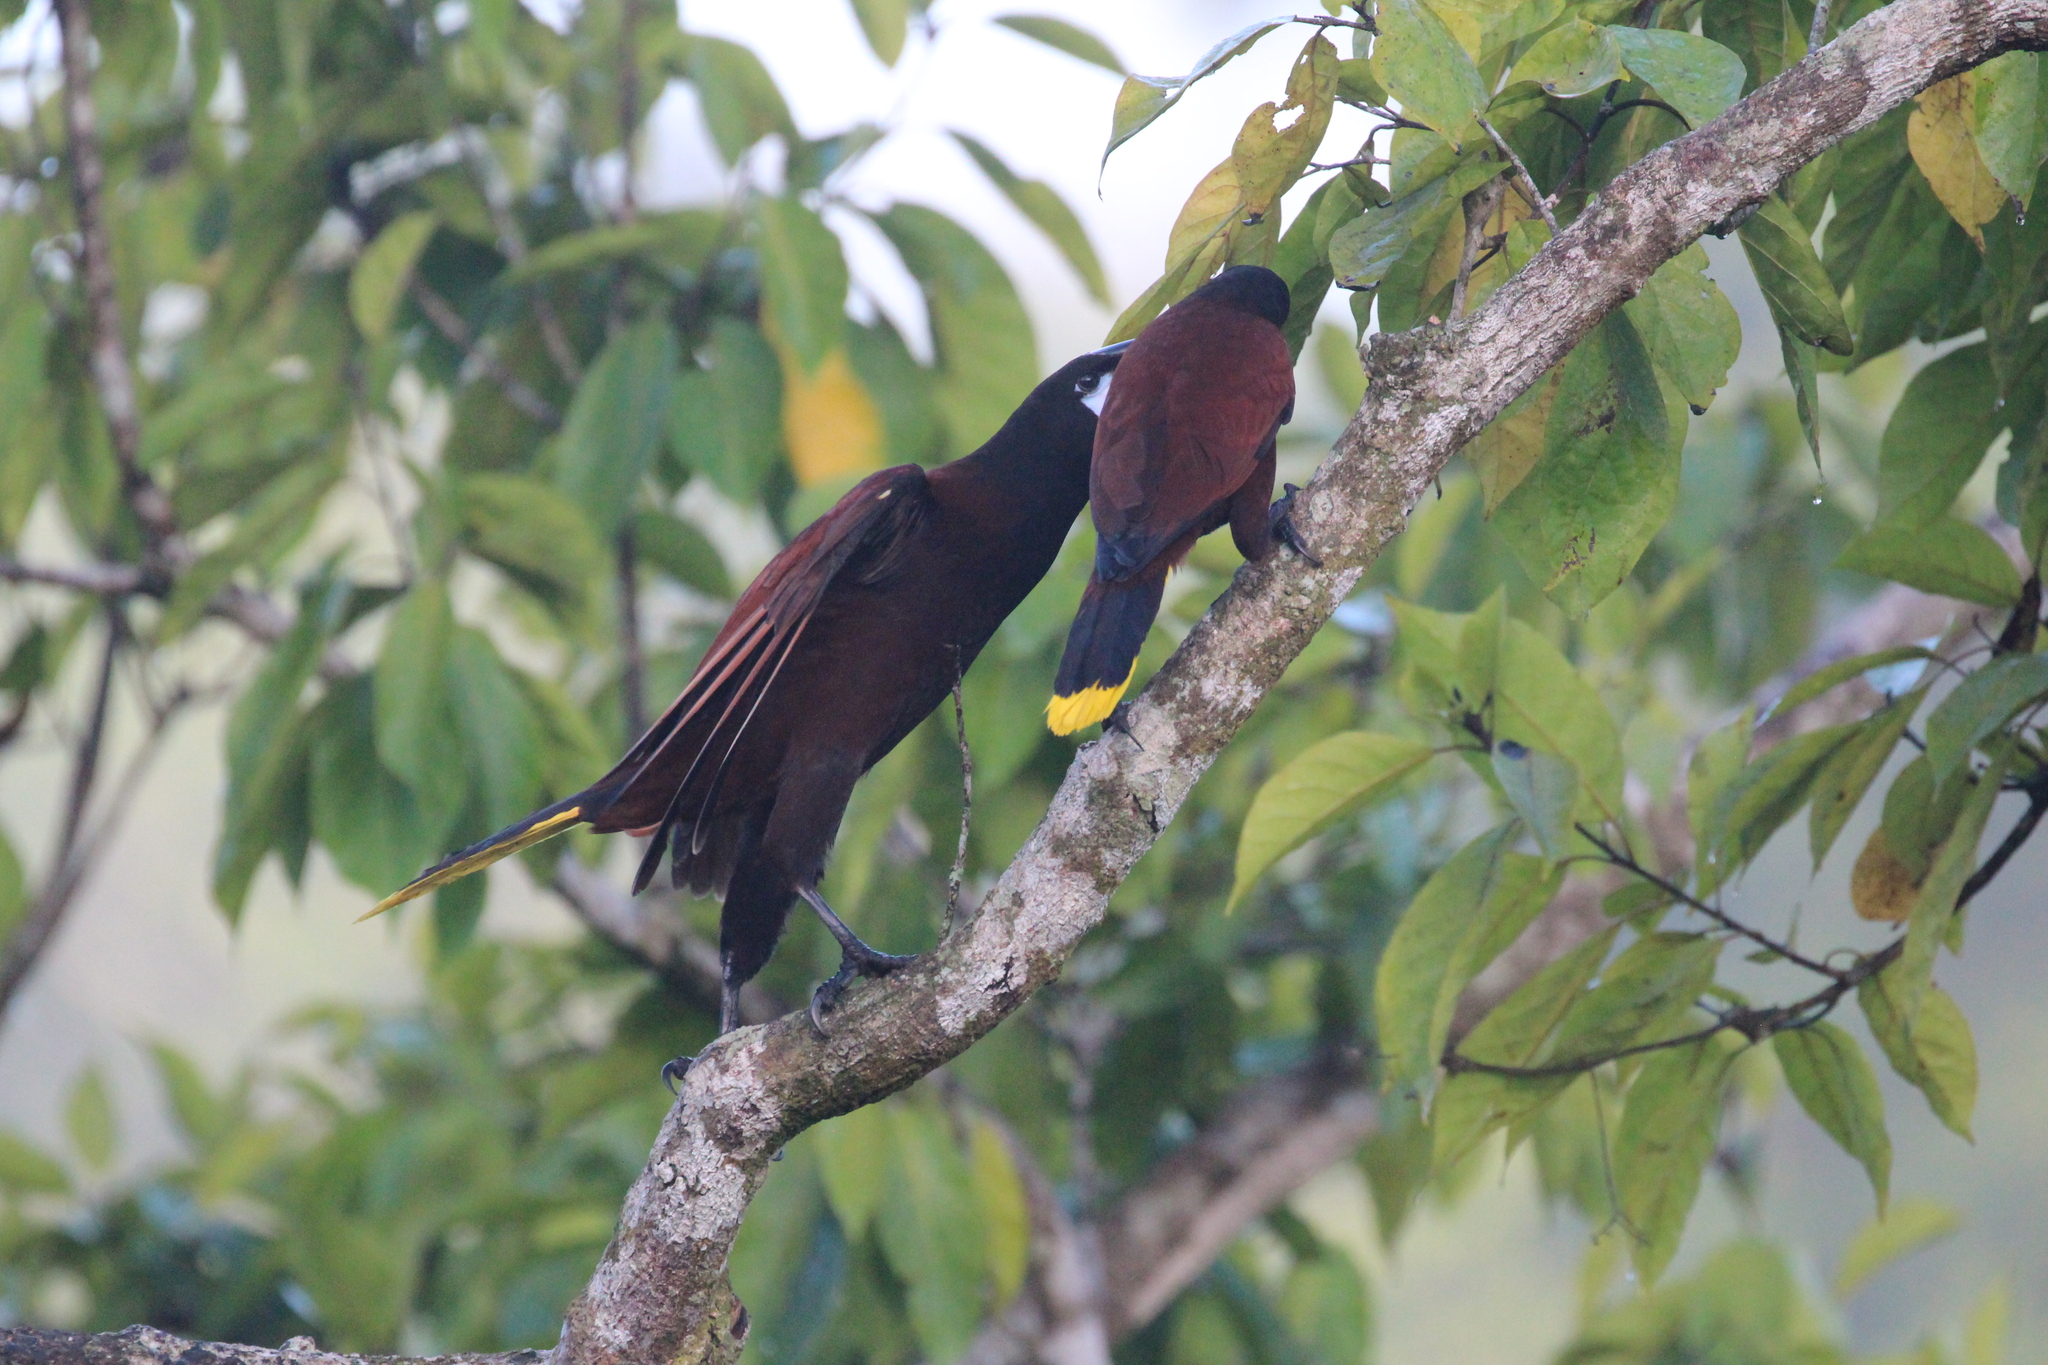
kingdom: Animalia
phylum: Chordata
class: Aves
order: Passeriformes
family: Icteridae
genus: Psarocolius
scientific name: Psarocolius montezuma
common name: Montezuma oropendola
